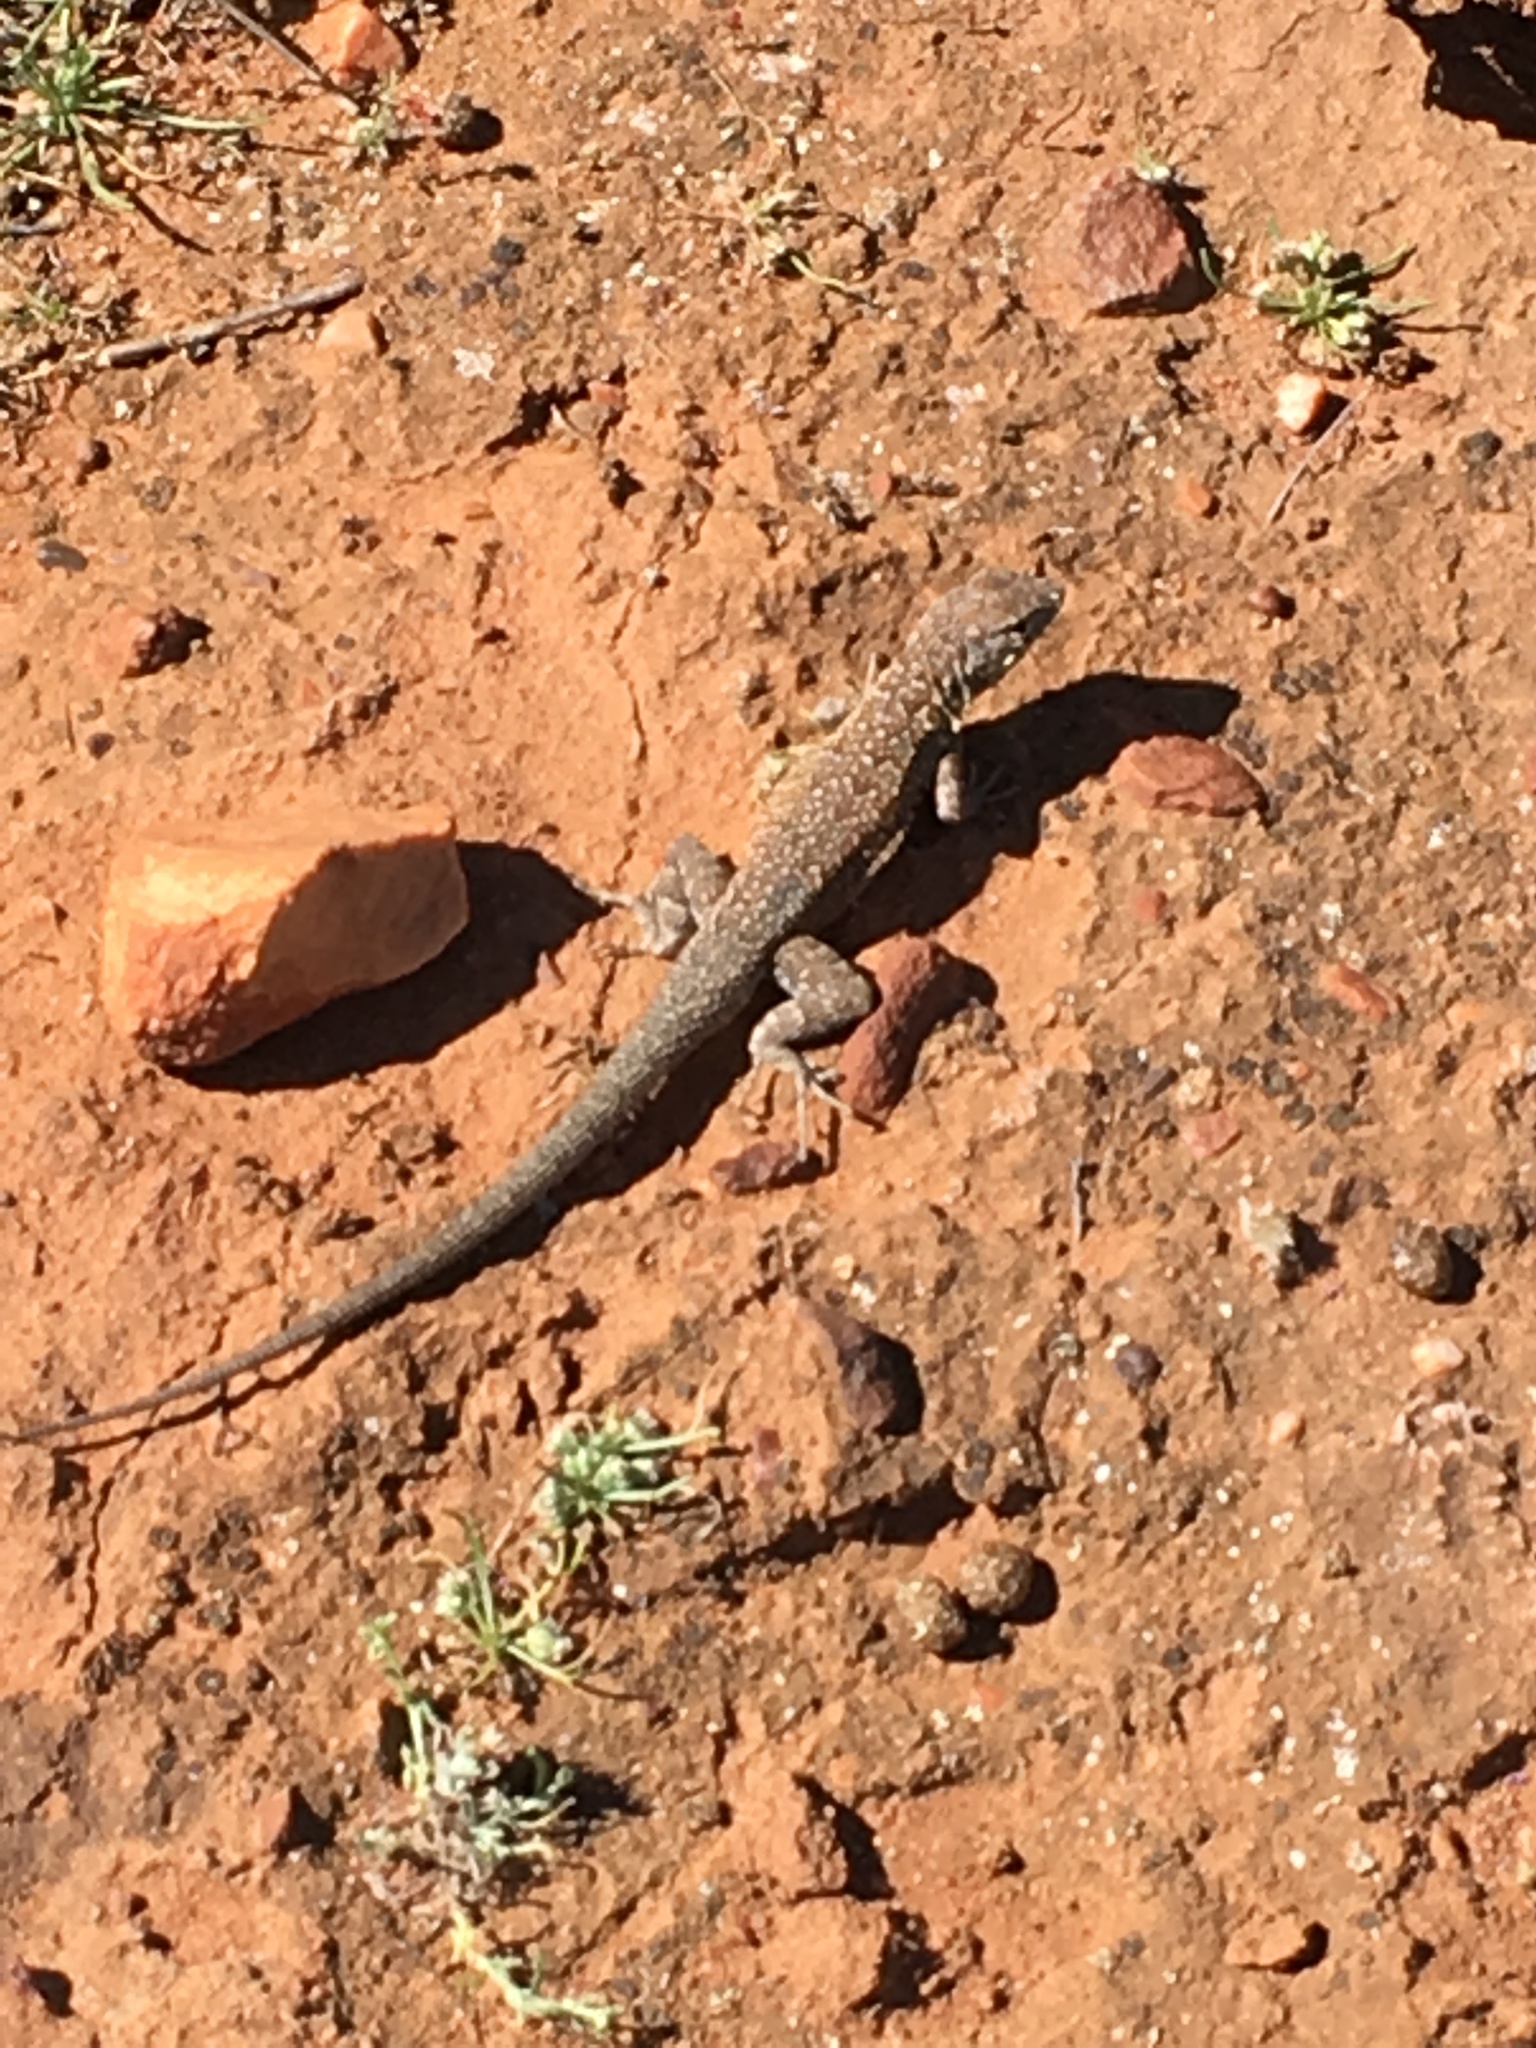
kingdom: Animalia
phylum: Chordata
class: Squamata
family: Phrynosomatidae
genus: Uta
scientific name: Uta stansburiana
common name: Side-blotched lizard
